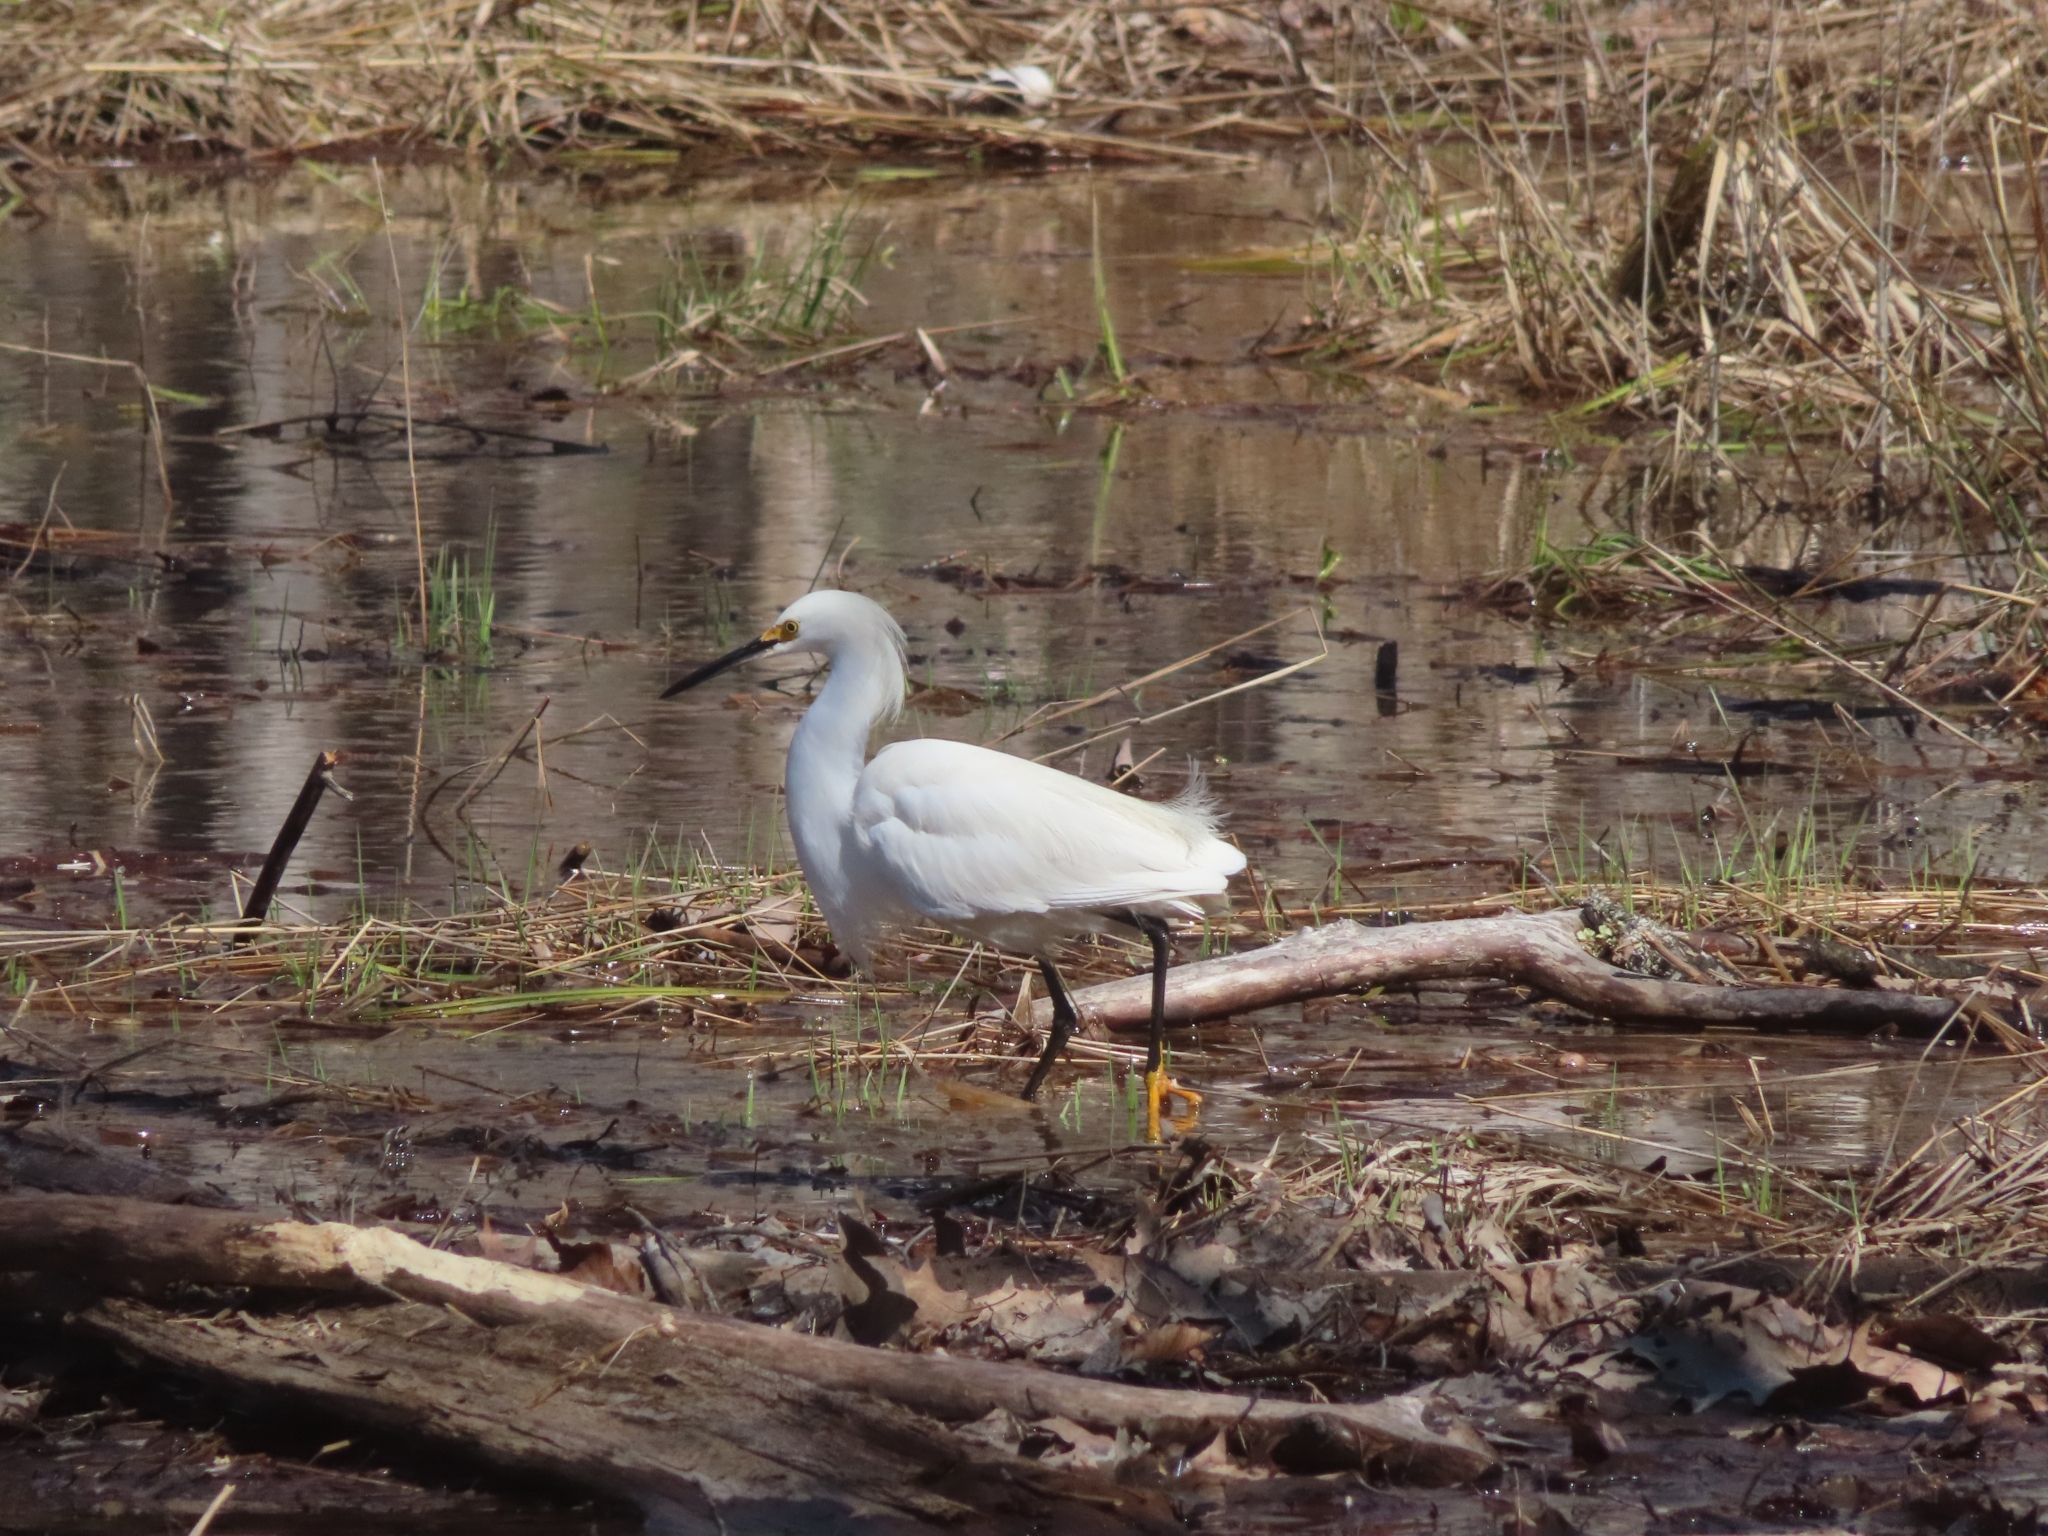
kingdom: Animalia
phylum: Chordata
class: Aves
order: Pelecaniformes
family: Ardeidae
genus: Egretta
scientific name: Egretta thula
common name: Snowy egret
